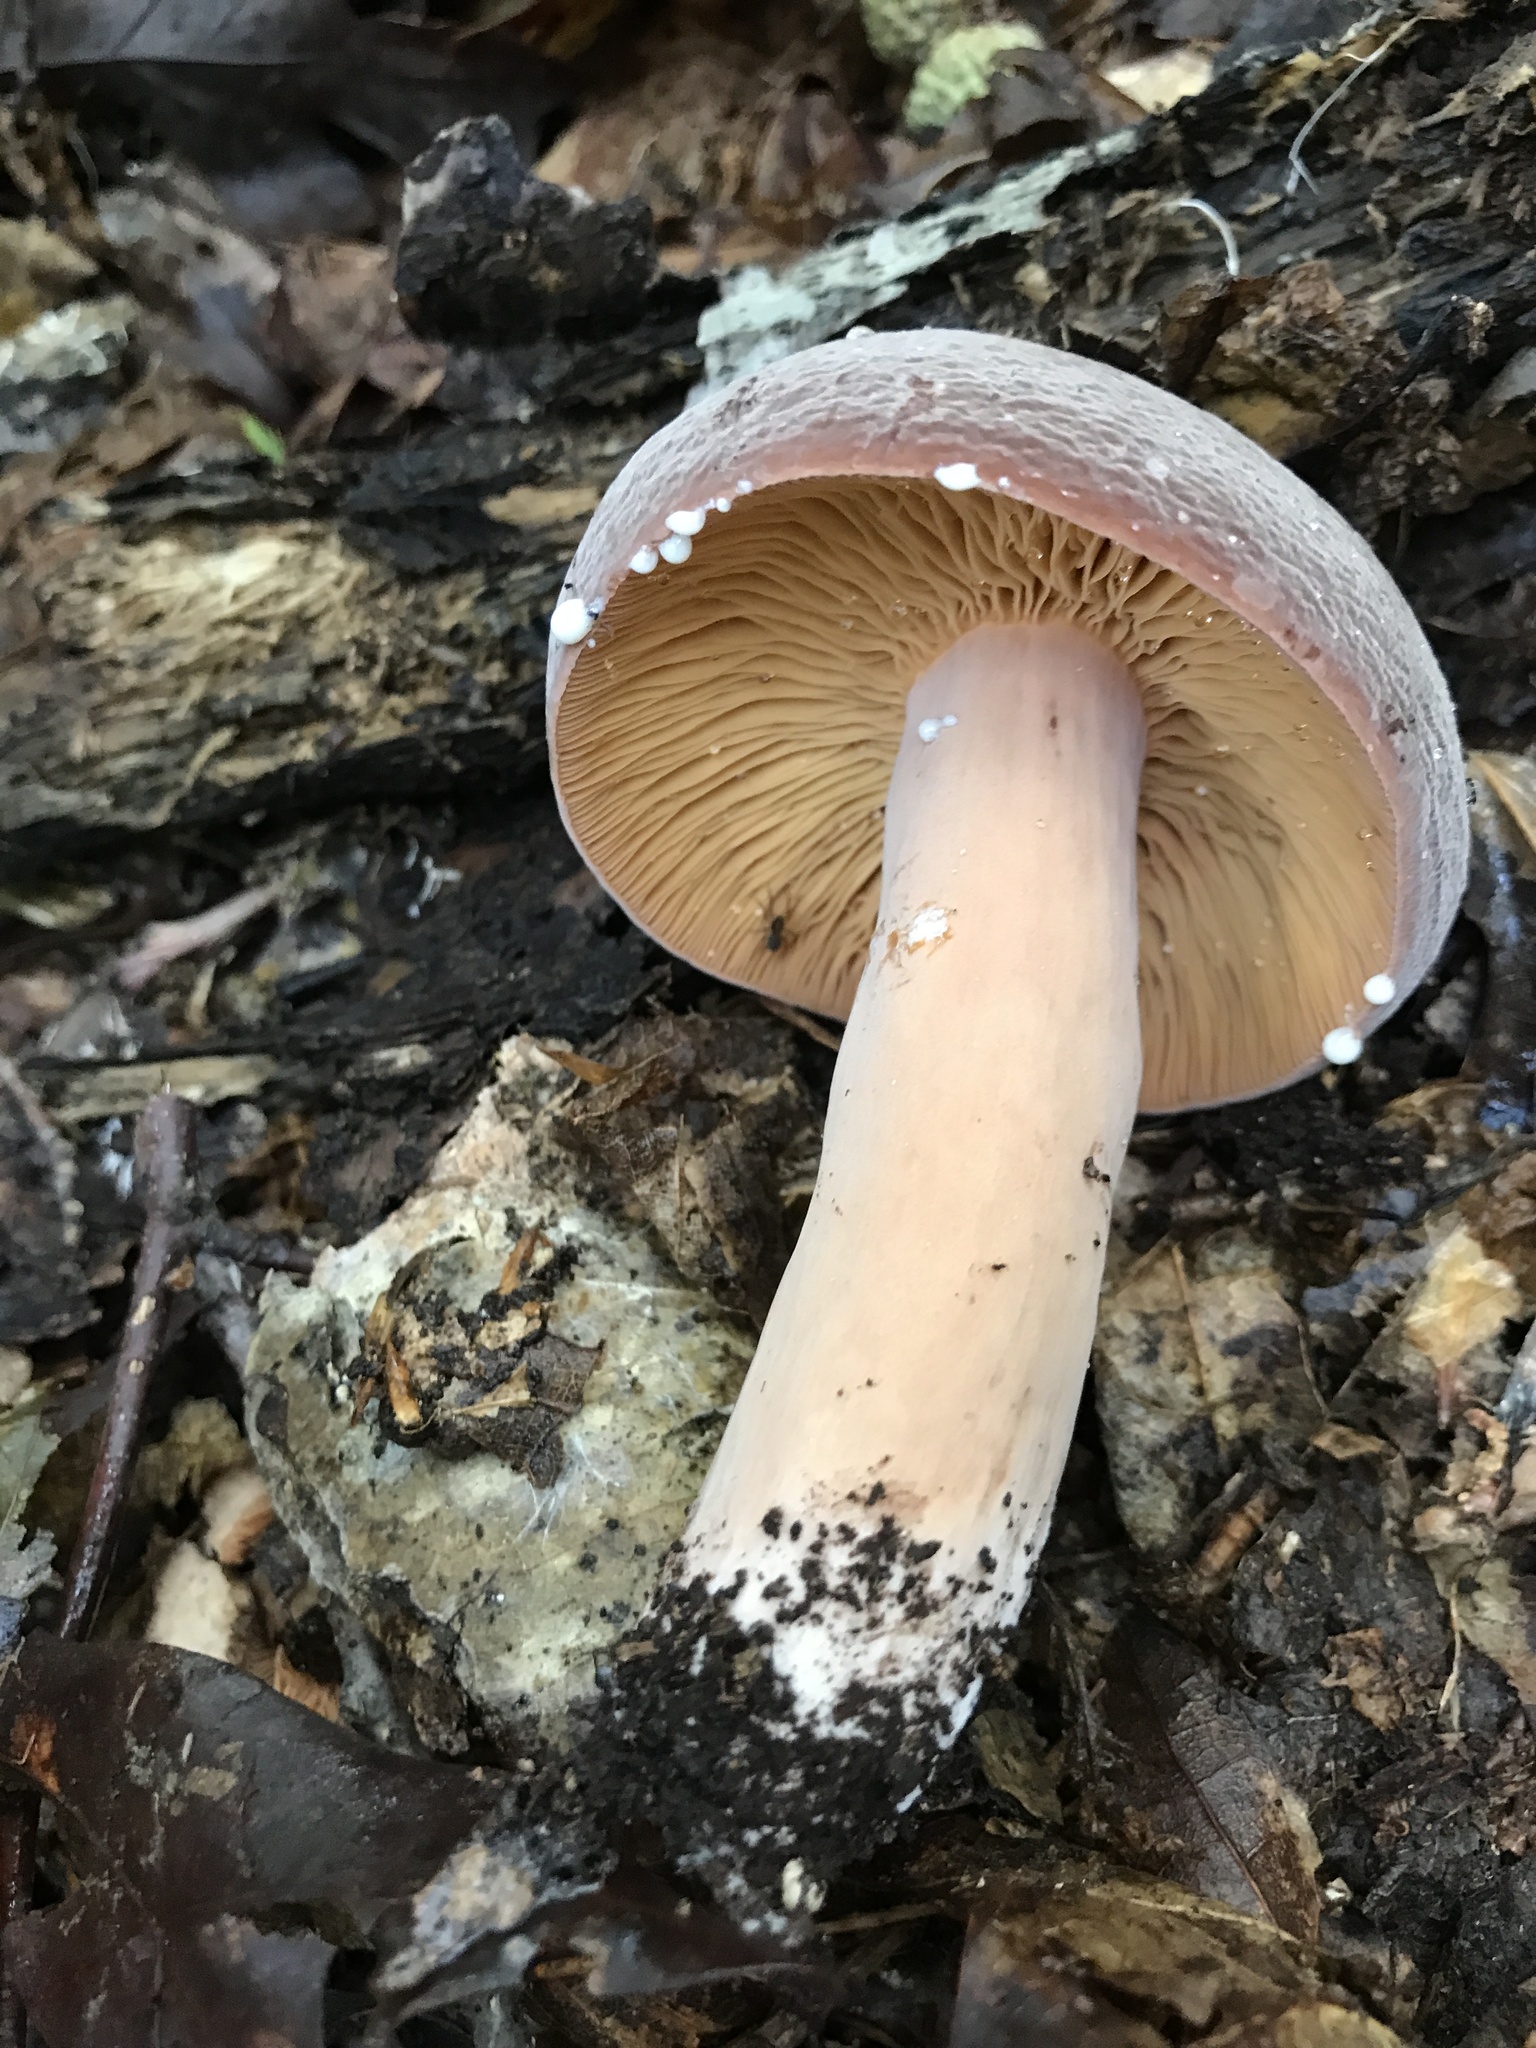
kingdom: Fungi
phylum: Basidiomycota
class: Agaricomycetes
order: Russulales
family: Russulaceae
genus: Lactarius
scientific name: Lactarius corrugis
